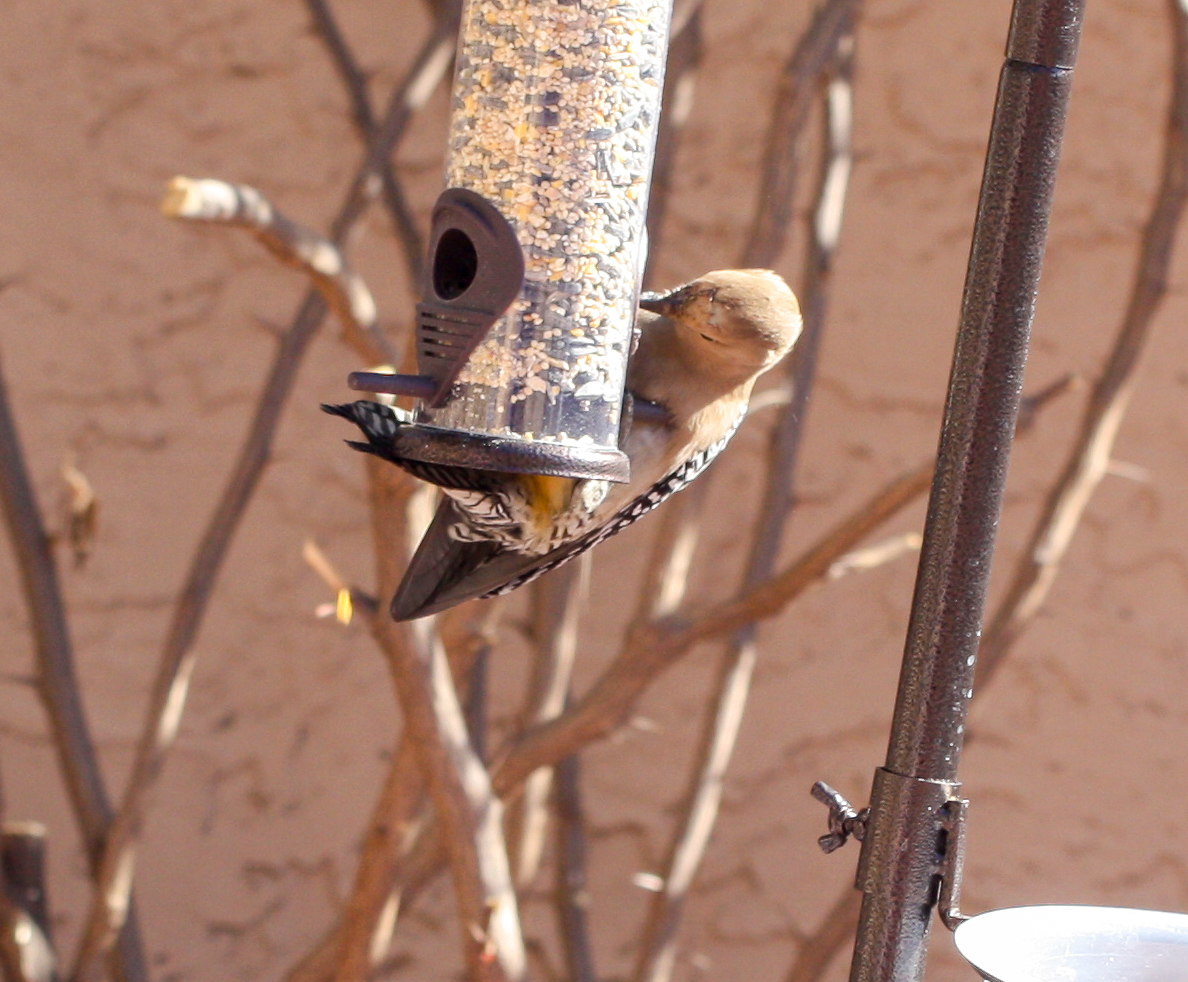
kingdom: Animalia
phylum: Chordata
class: Aves
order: Piciformes
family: Picidae
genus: Melanerpes
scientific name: Melanerpes uropygialis
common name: Gila woodpecker
